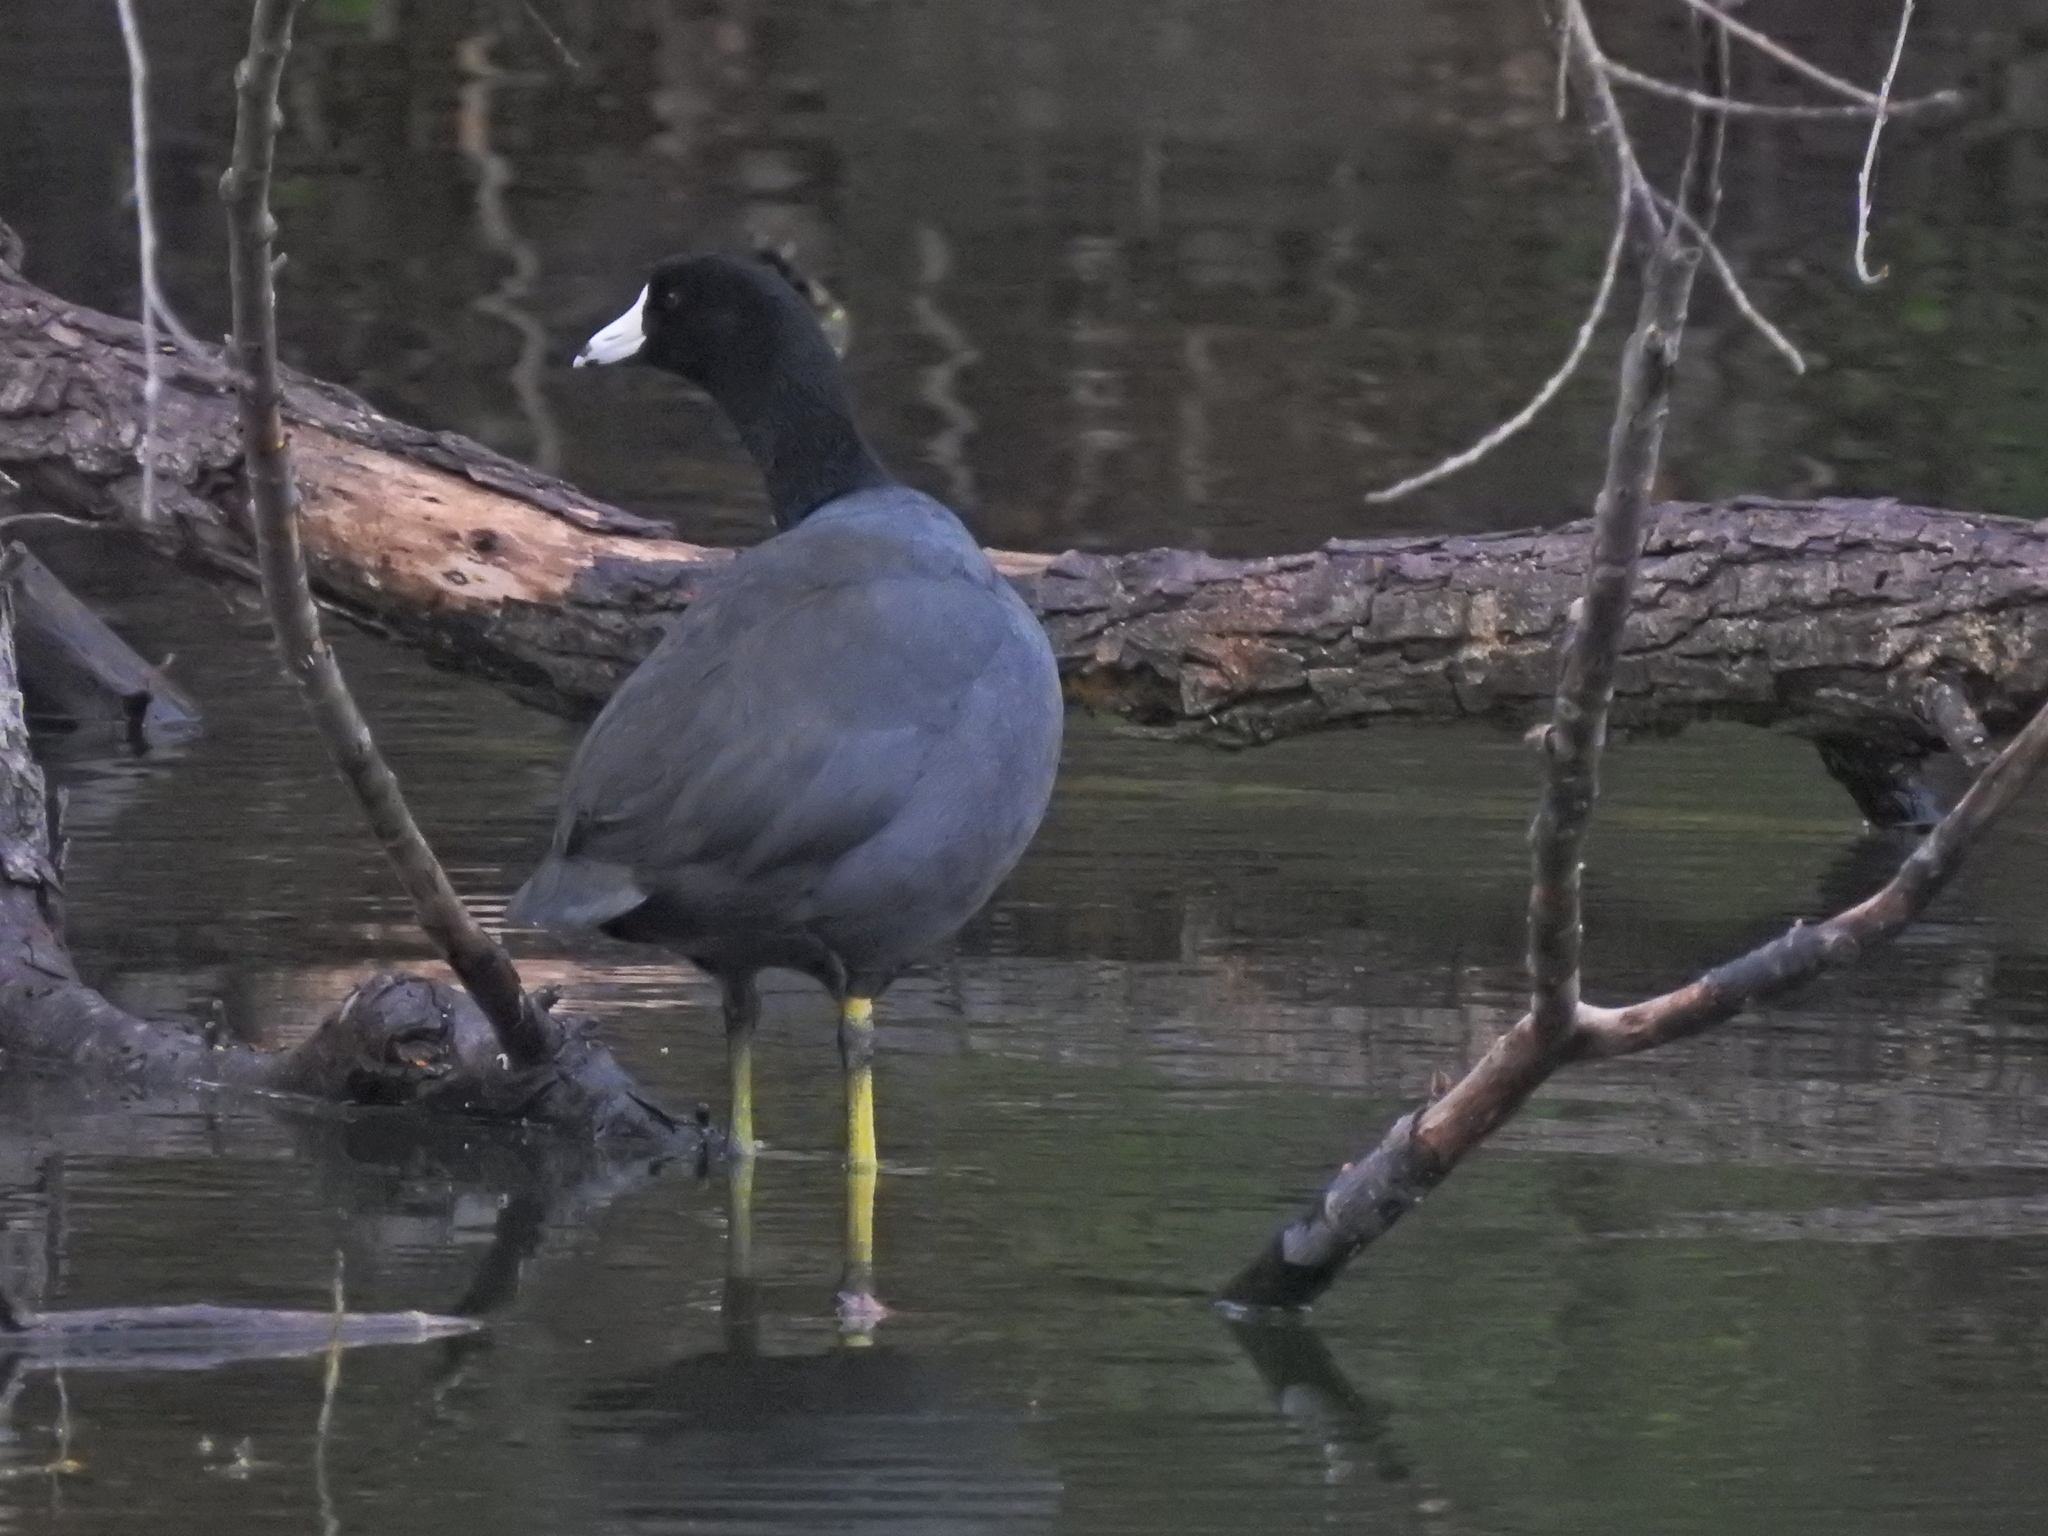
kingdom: Animalia
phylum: Chordata
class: Aves
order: Gruiformes
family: Rallidae
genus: Fulica
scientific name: Fulica americana
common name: American coot
